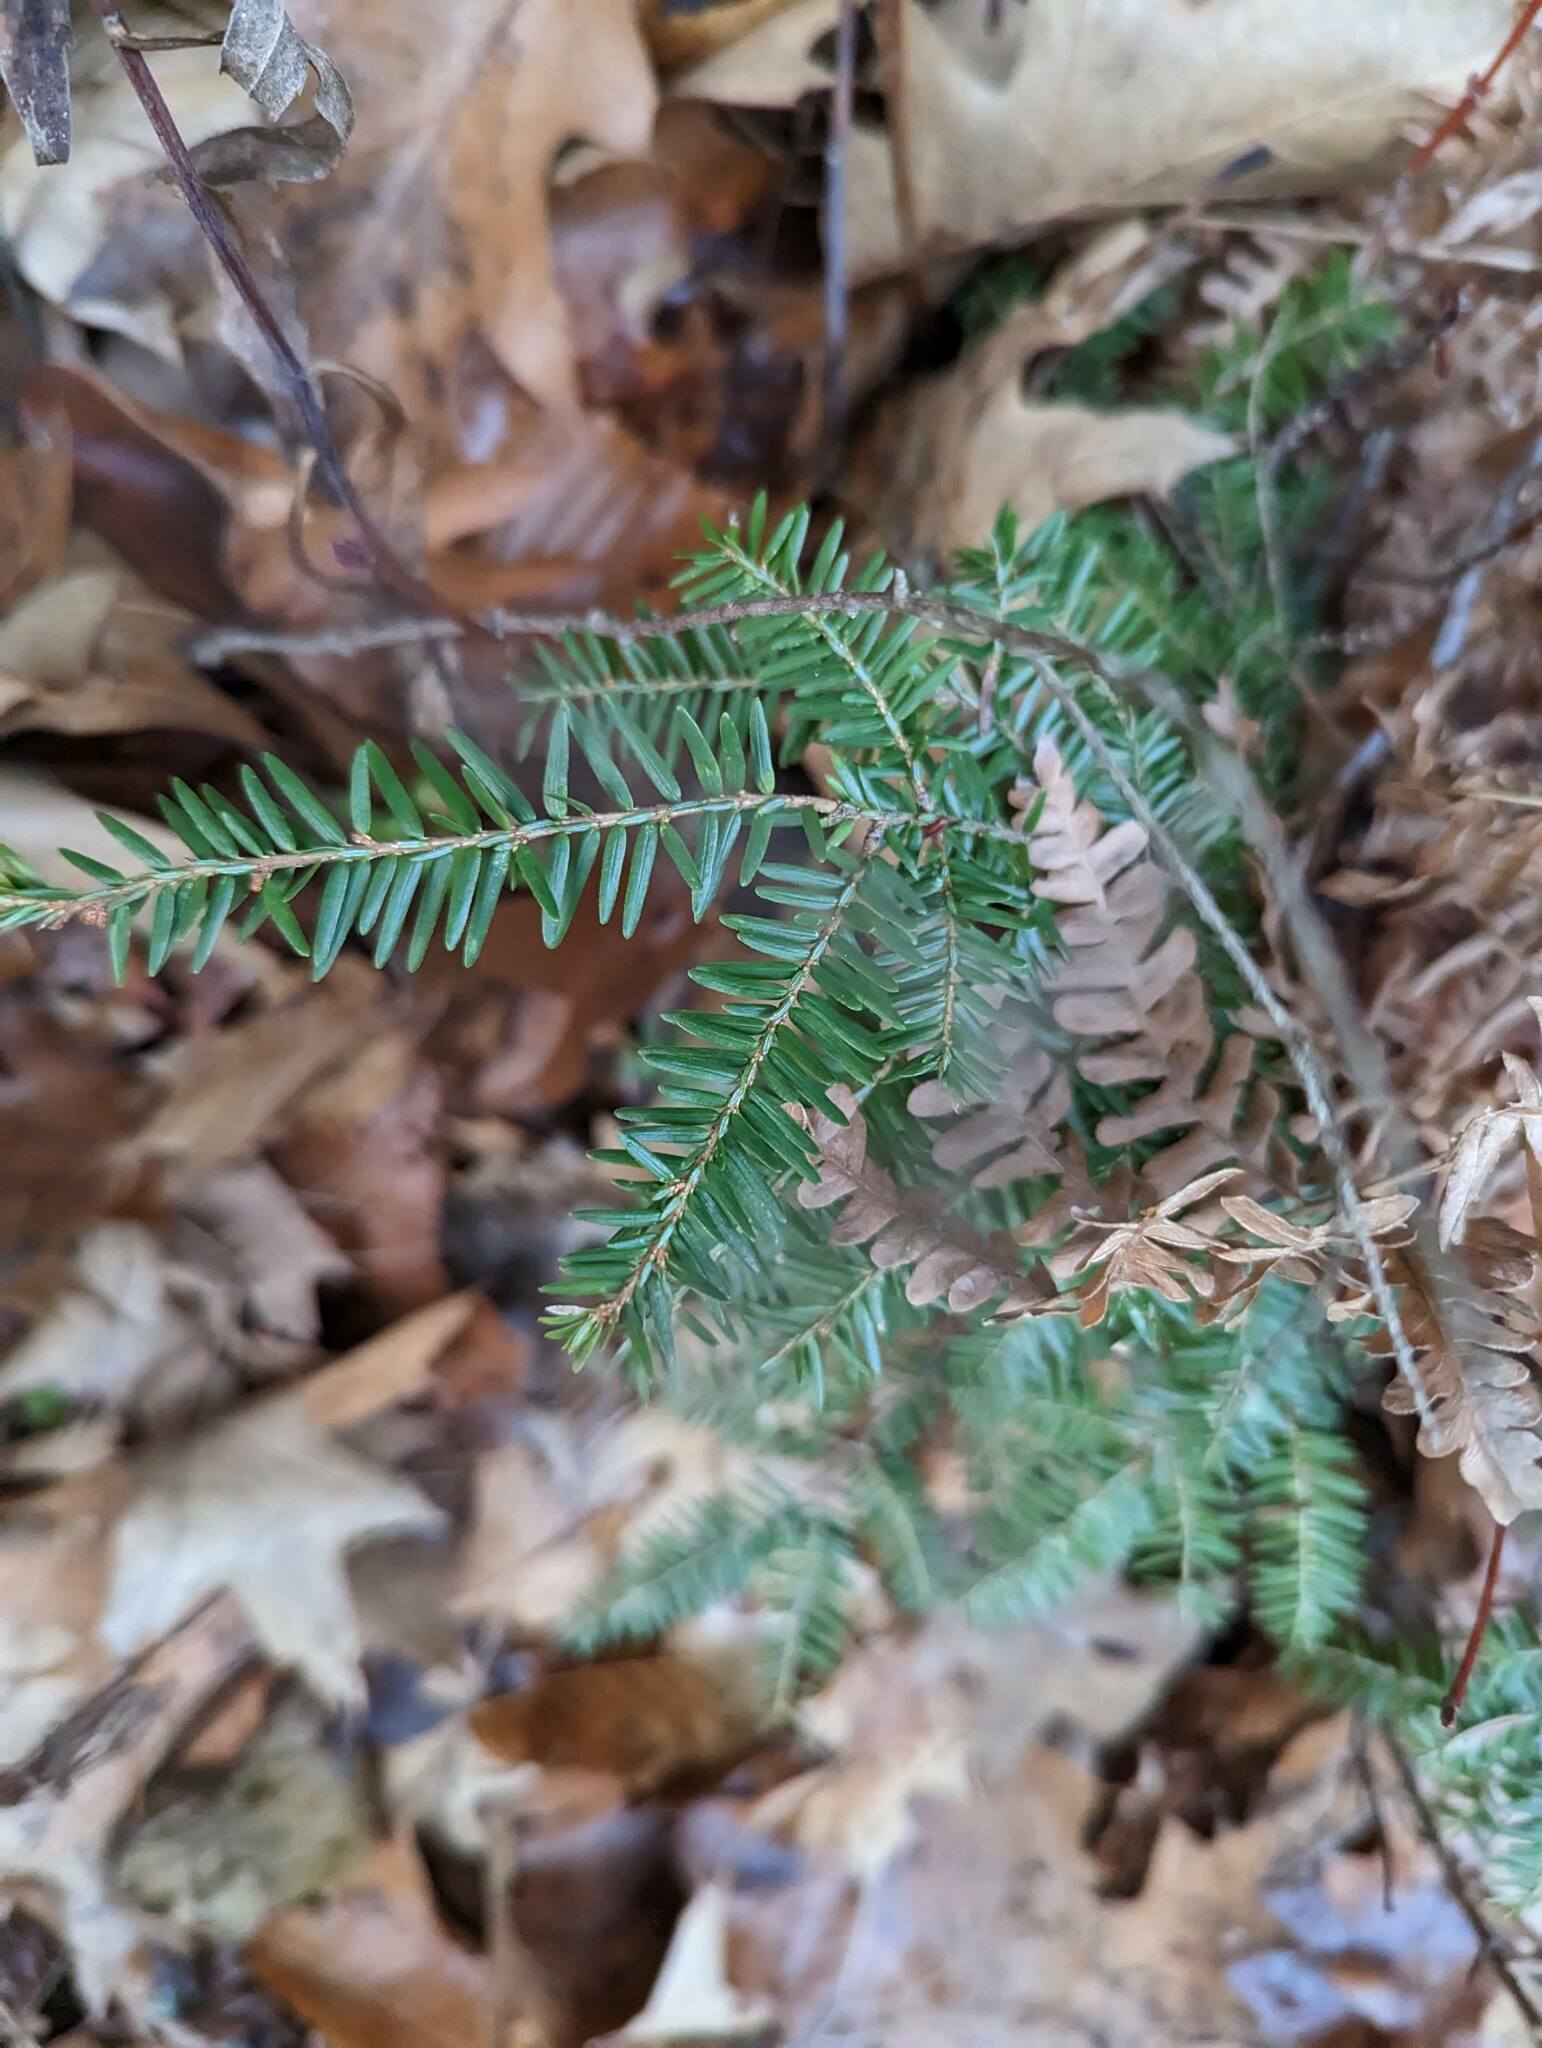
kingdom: Plantae
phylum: Tracheophyta
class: Pinopsida
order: Pinales
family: Pinaceae
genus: Tsuga
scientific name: Tsuga canadensis
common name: Eastern hemlock
